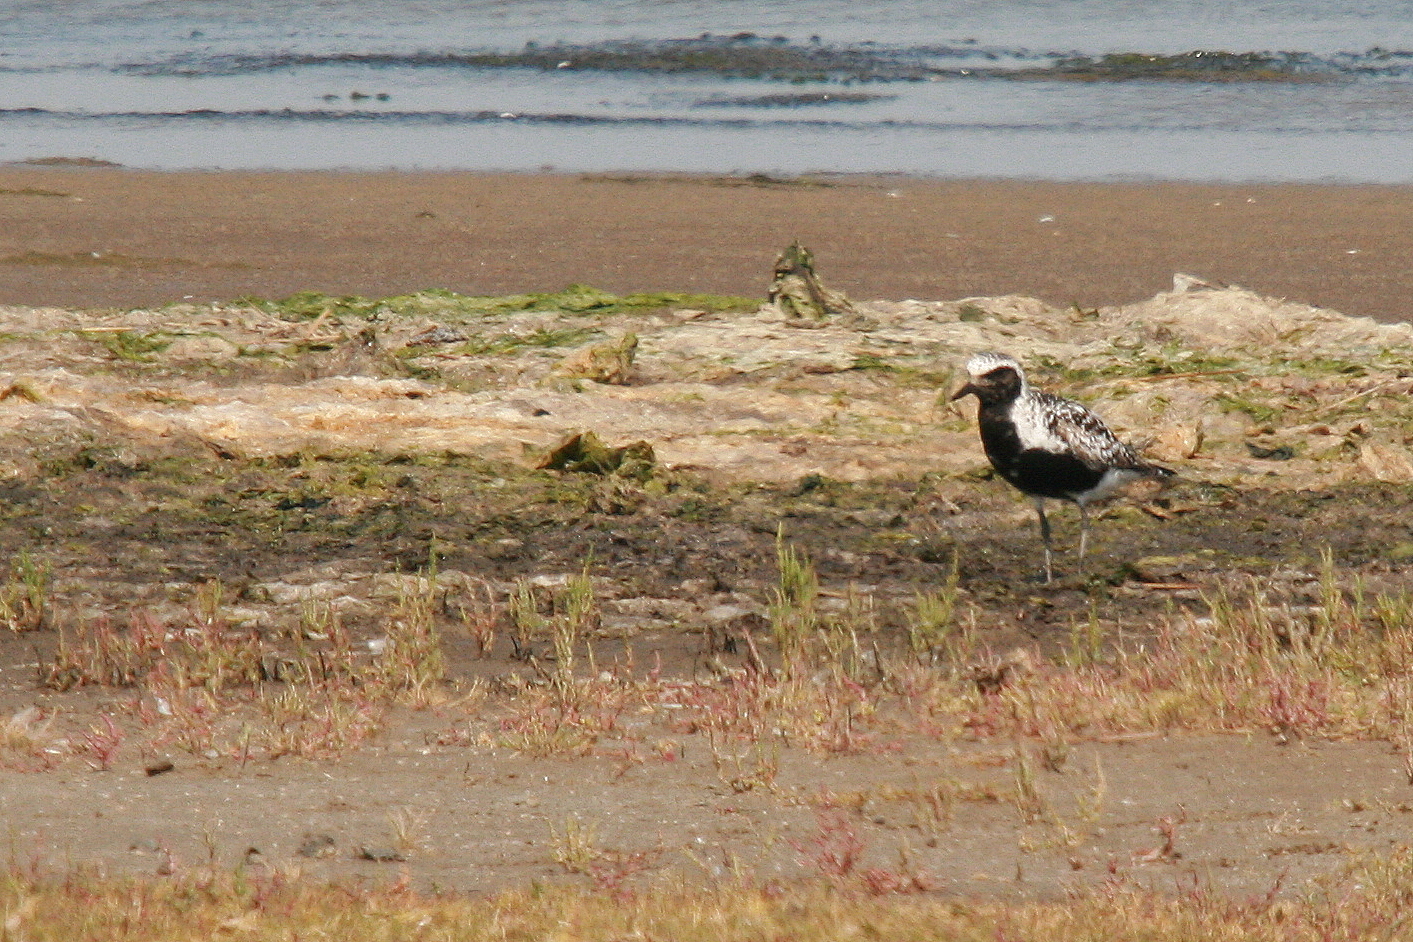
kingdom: Animalia
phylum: Chordata
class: Aves
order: Charadriiformes
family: Charadriidae
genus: Pluvialis
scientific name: Pluvialis squatarola
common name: Grey plover
